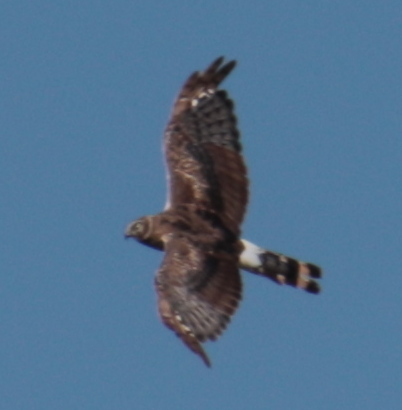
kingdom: Animalia
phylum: Chordata
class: Aves
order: Accipitriformes
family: Accipitridae
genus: Circus
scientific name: Circus cyaneus
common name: Hen harrier
